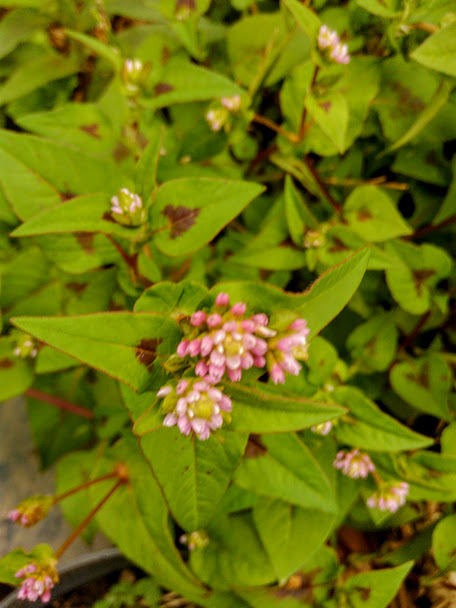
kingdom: Plantae
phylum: Tracheophyta
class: Magnoliopsida
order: Caryophyllales
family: Polygonaceae
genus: Persicaria
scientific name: Persicaria nepalensis
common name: Nepal persicaria
